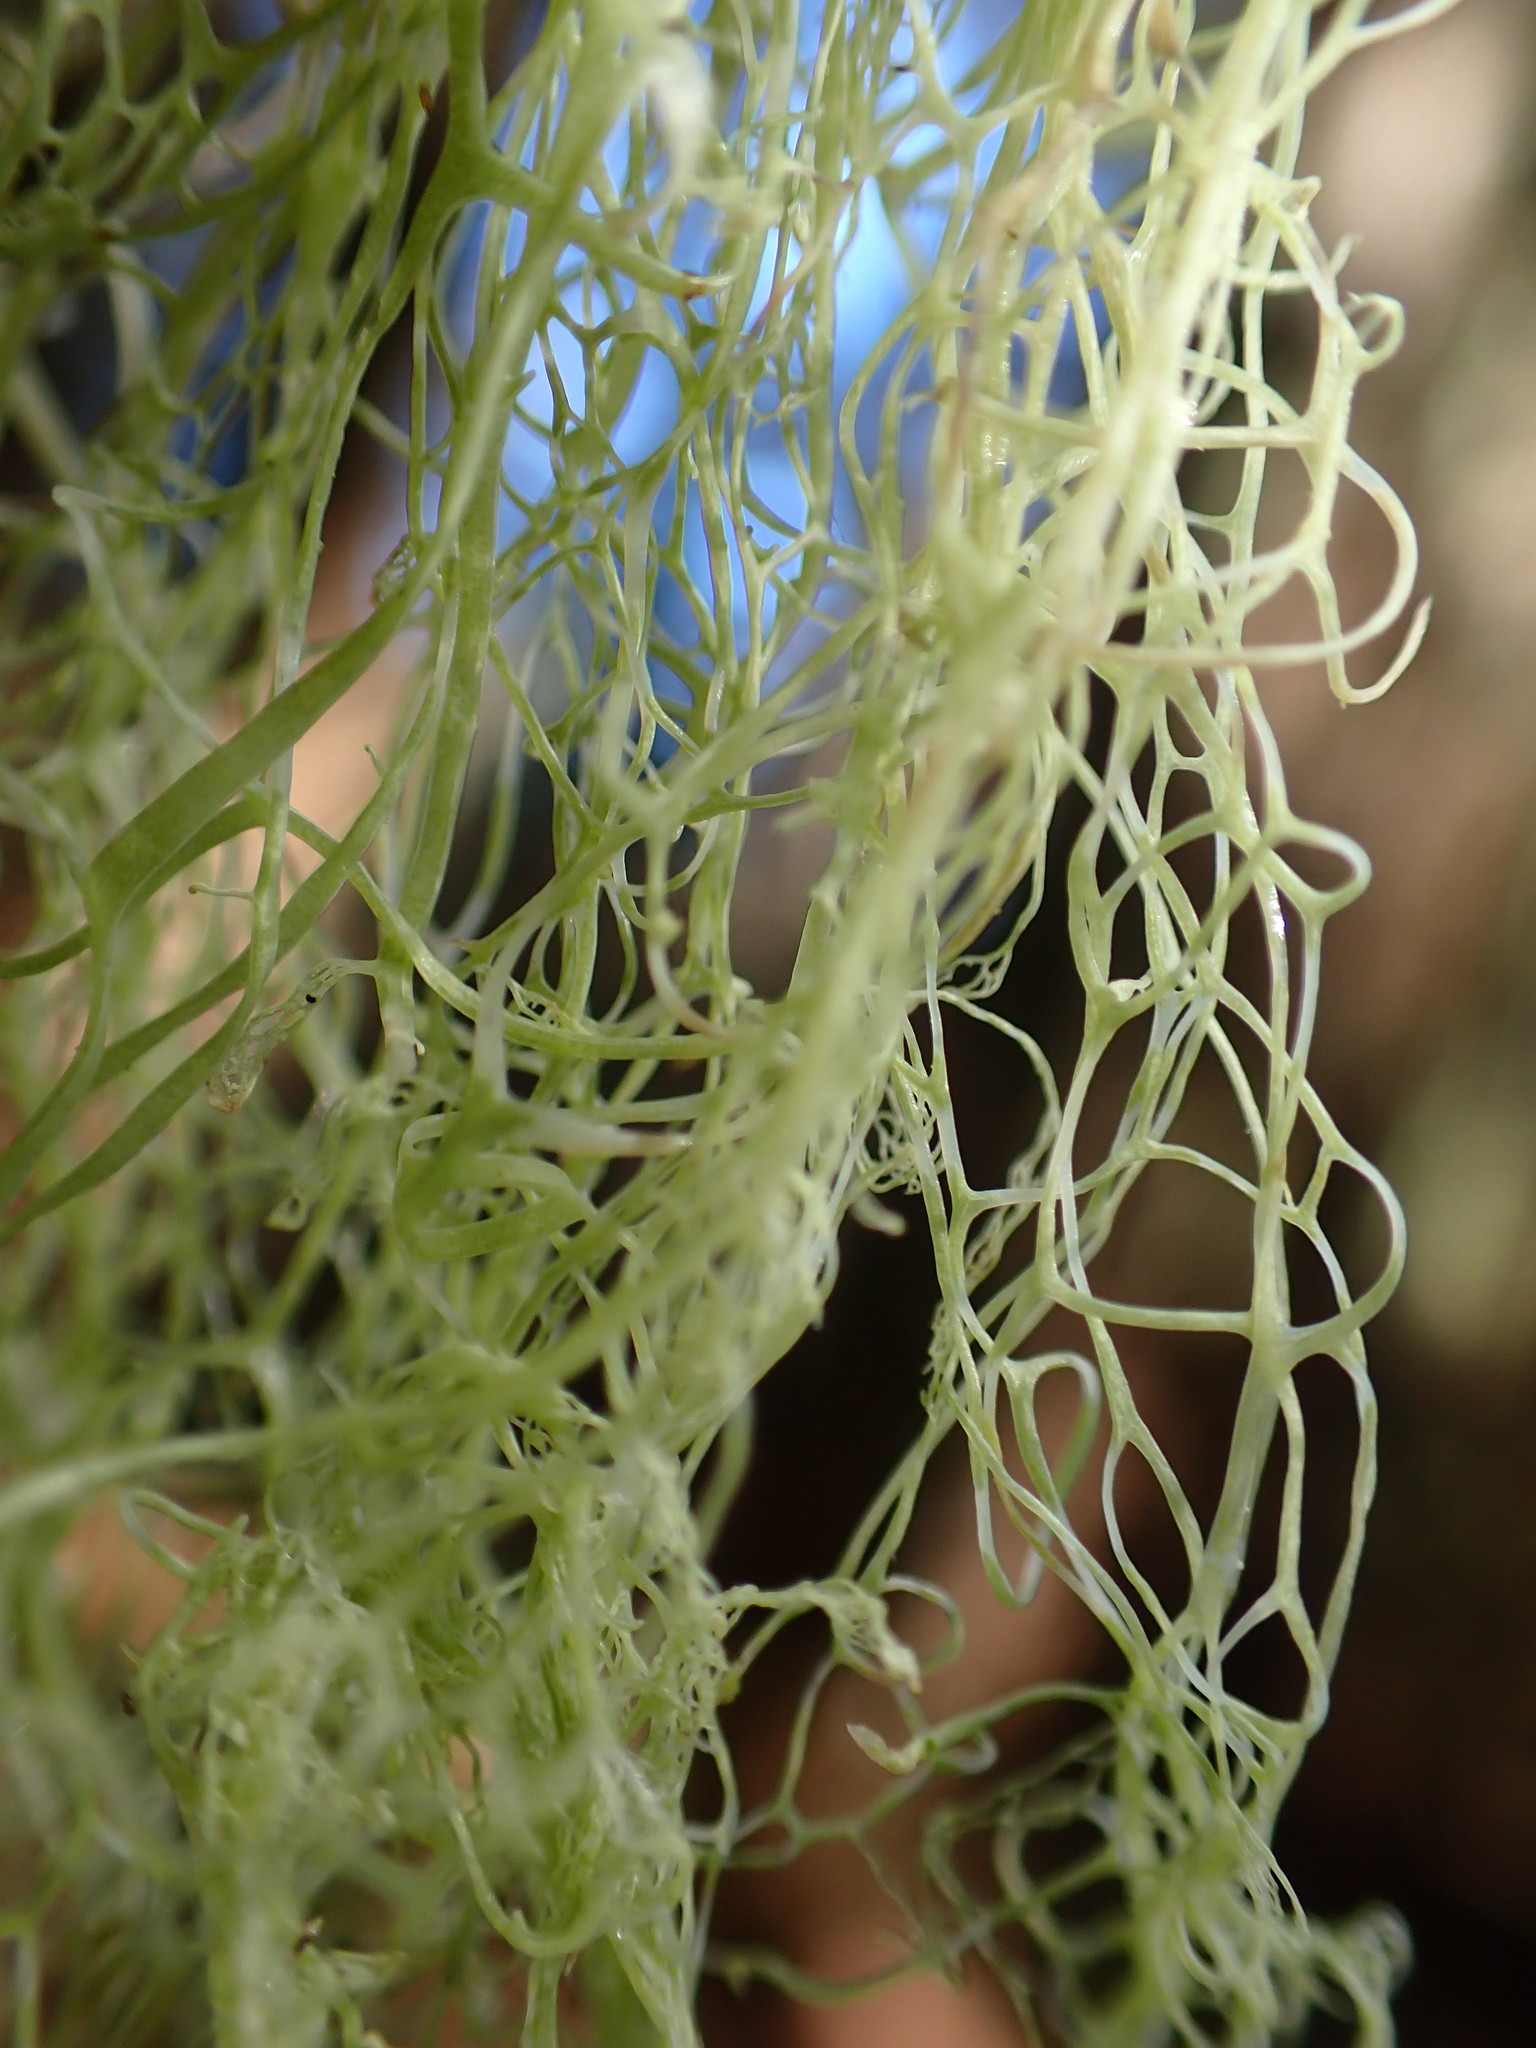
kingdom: Fungi
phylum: Ascomycota
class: Lecanoromycetes
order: Lecanorales
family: Ramalinaceae
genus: Ramalina
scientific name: Ramalina menziesii
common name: Lace lichen
